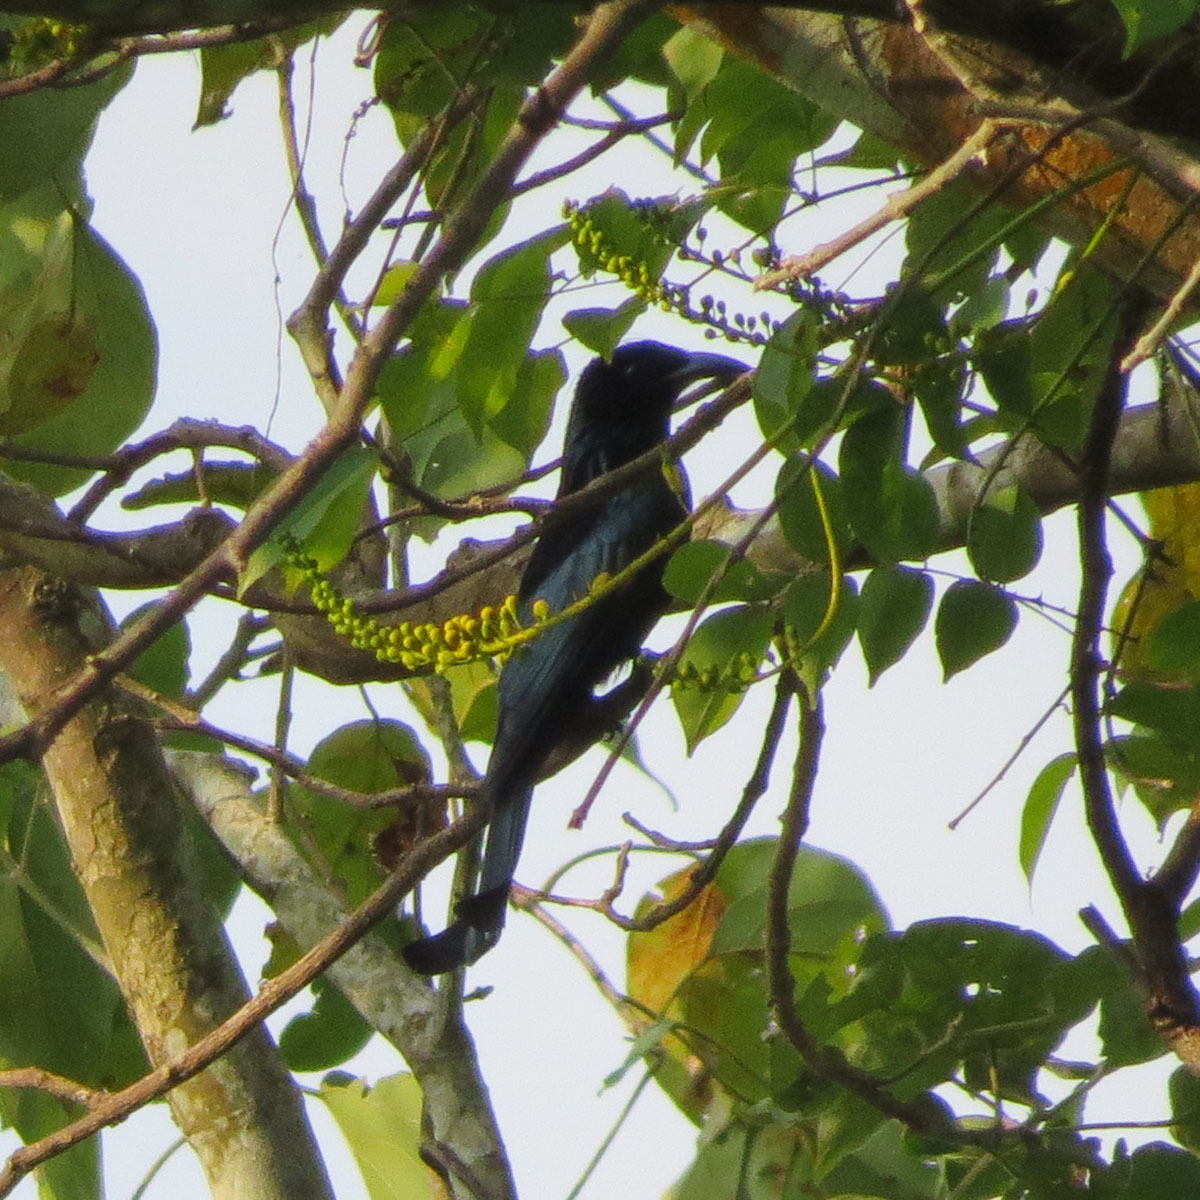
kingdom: Animalia
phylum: Chordata
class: Aves
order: Passeriformes
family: Dicruridae
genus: Dicrurus
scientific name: Dicrurus hottentottus
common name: Hair-crested drongo
